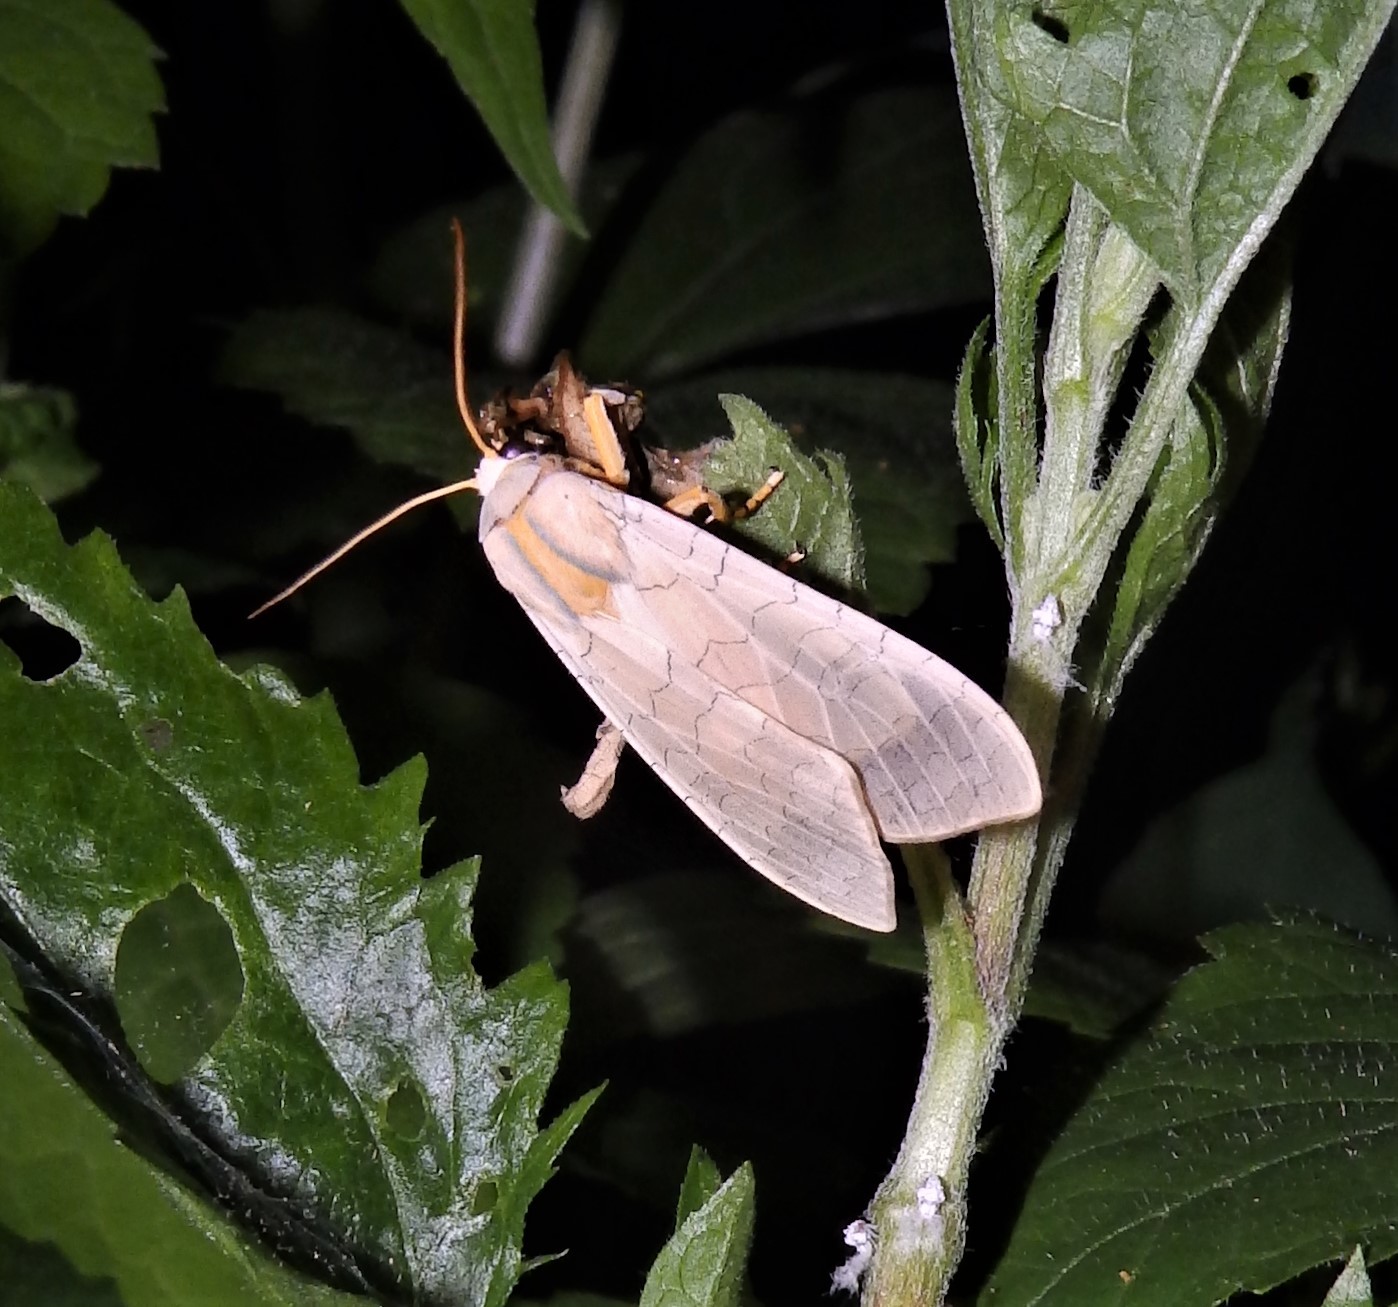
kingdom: Animalia
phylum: Arthropoda
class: Insecta
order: Lepidoptera
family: Erebidae
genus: Halysidota
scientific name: Halysidota
